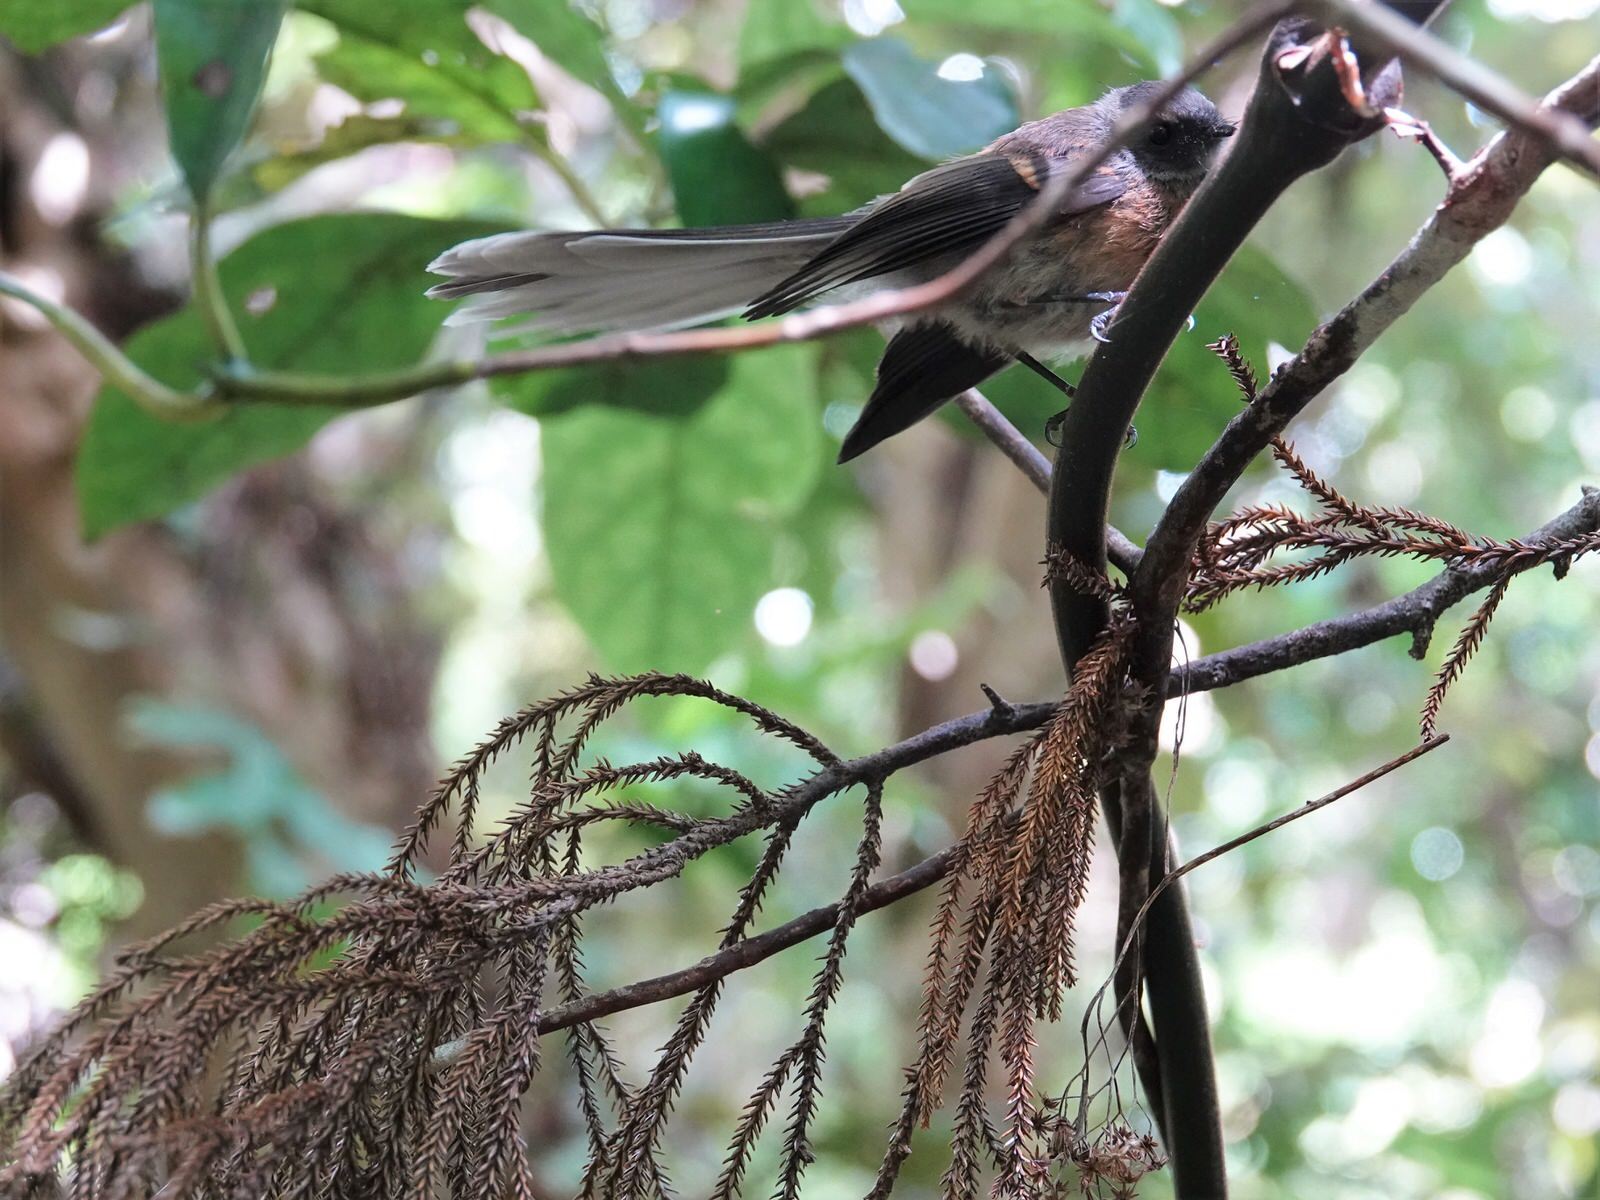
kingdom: Animalia
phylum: Chordata
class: Aves
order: Passeriformes
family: Rhipiduridae
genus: Rhipidura
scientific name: Rhipidura fuliginosa
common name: New zealand fantail
